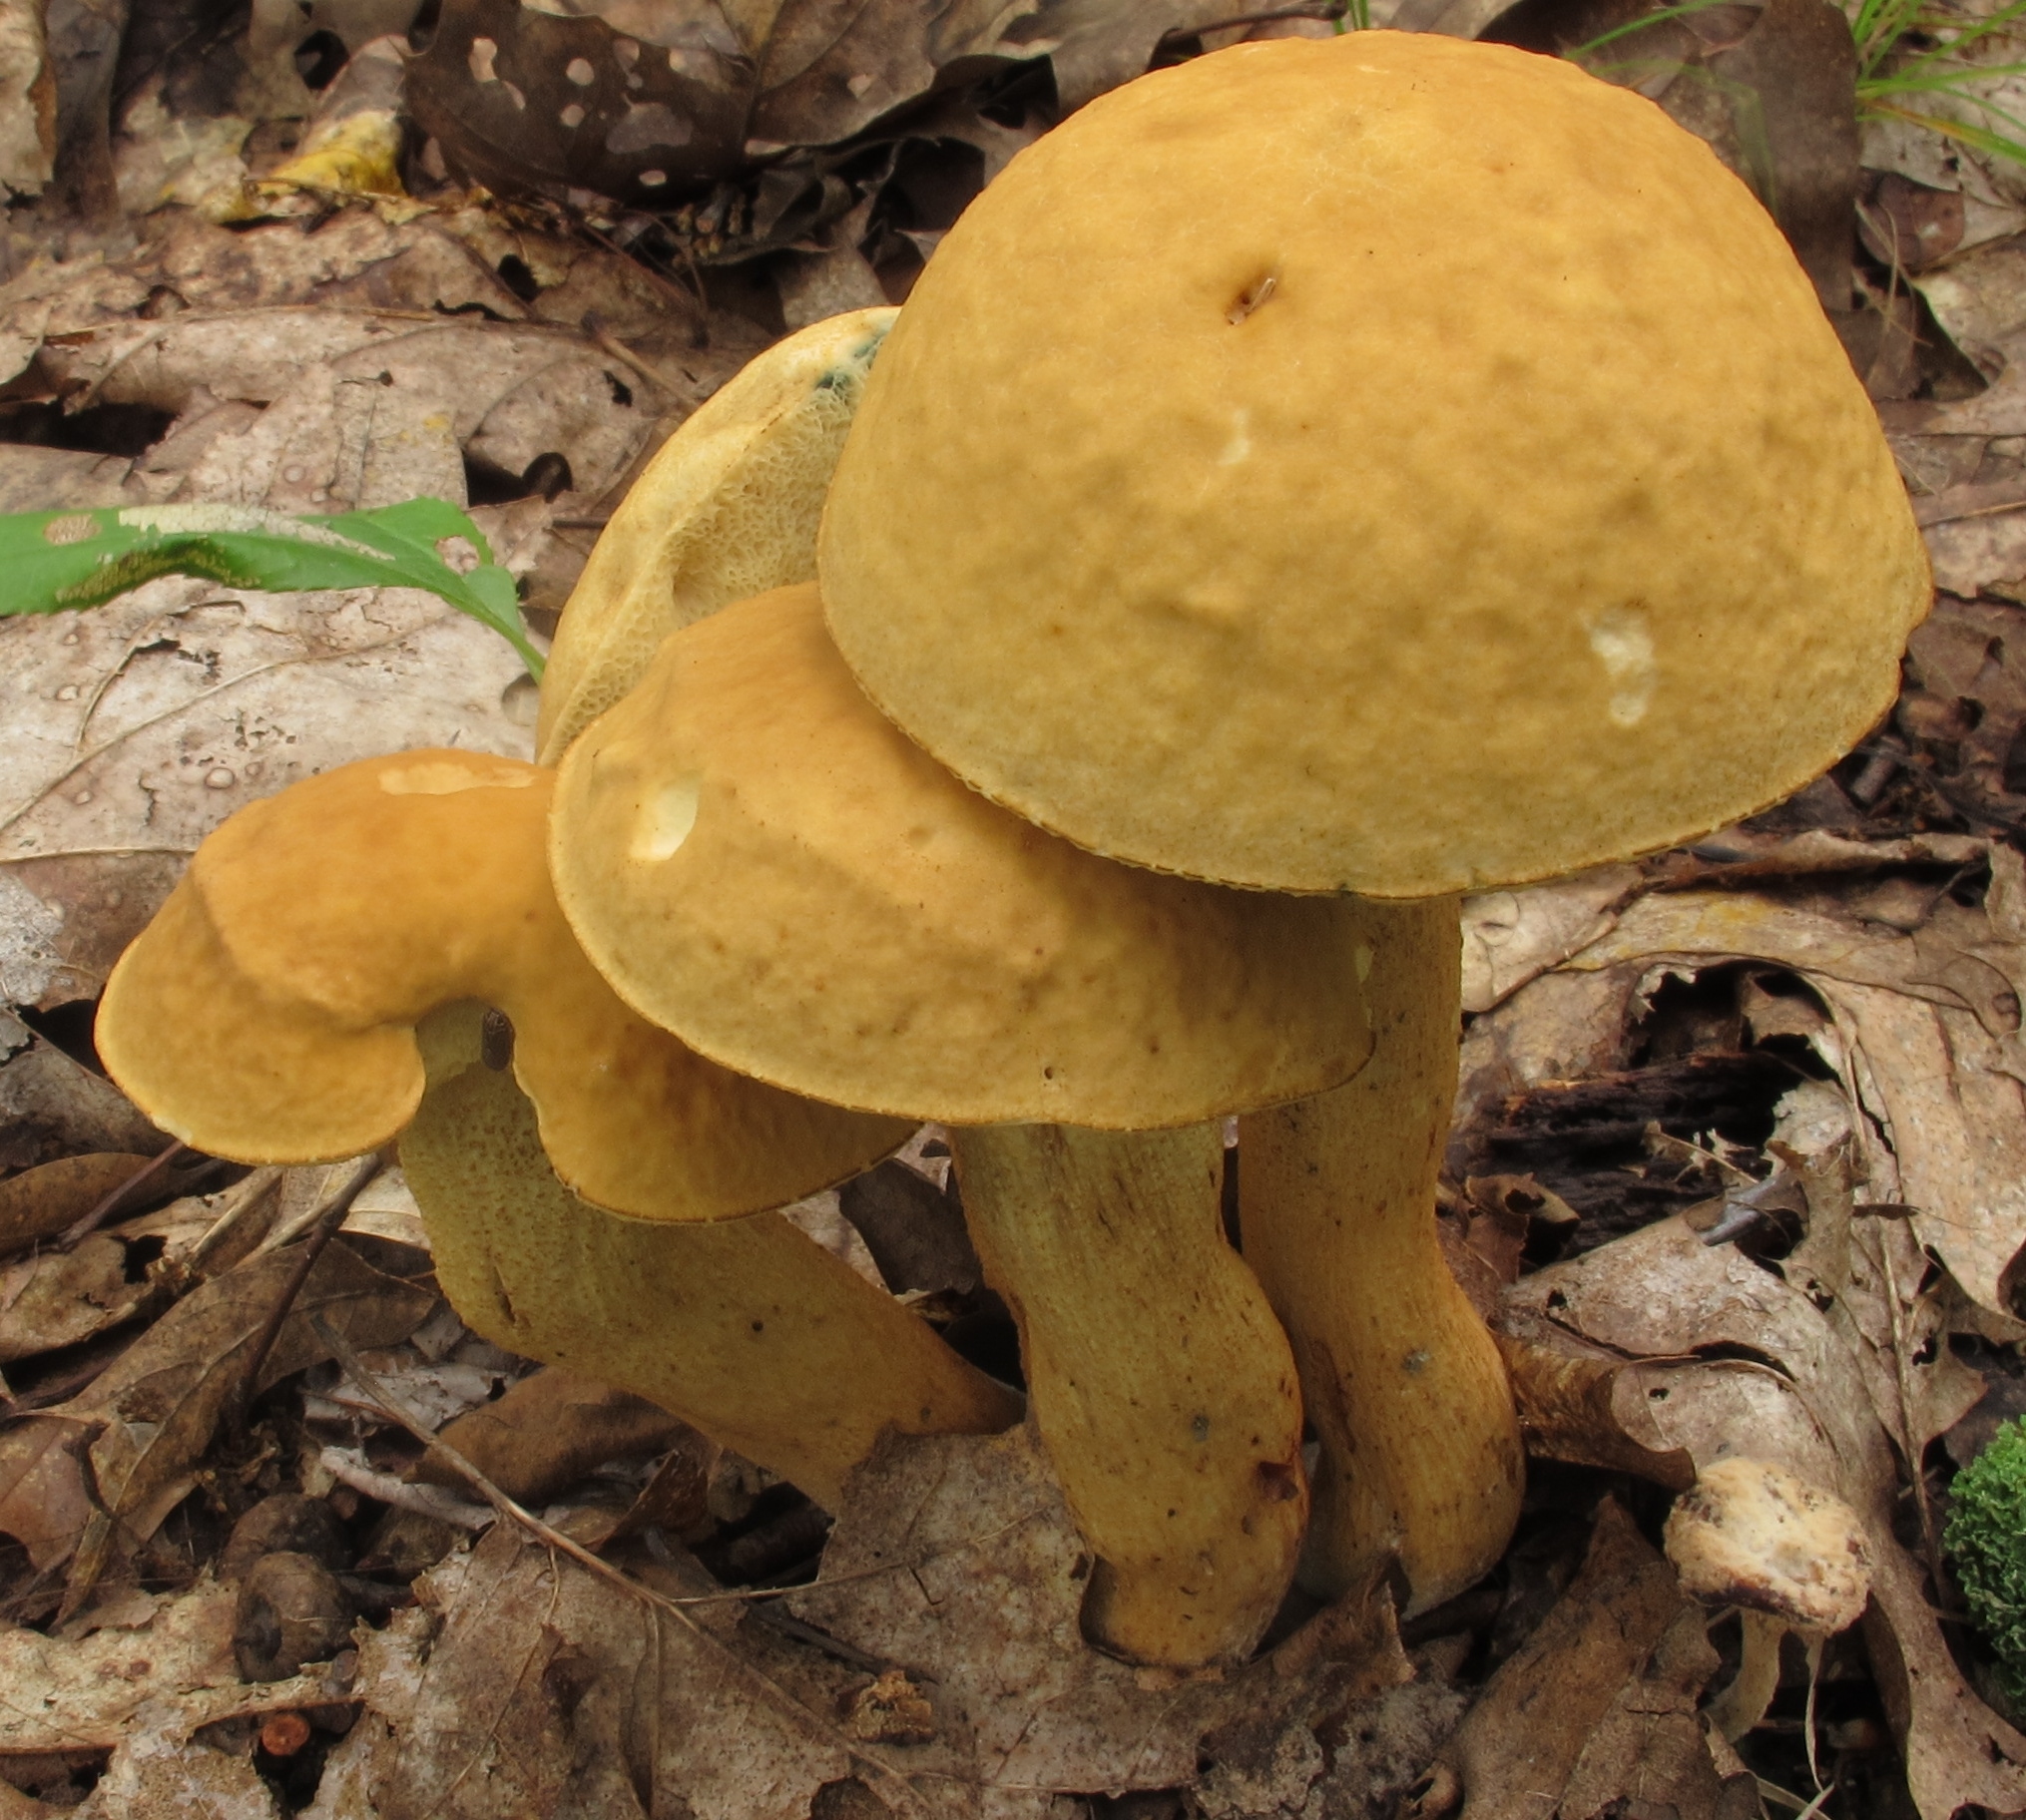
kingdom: Fungi
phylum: Basidiomycota
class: Agaricomycetes
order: Boletales
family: Boletaceae
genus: Leccinellum
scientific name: Leccinellum rugosiceps
